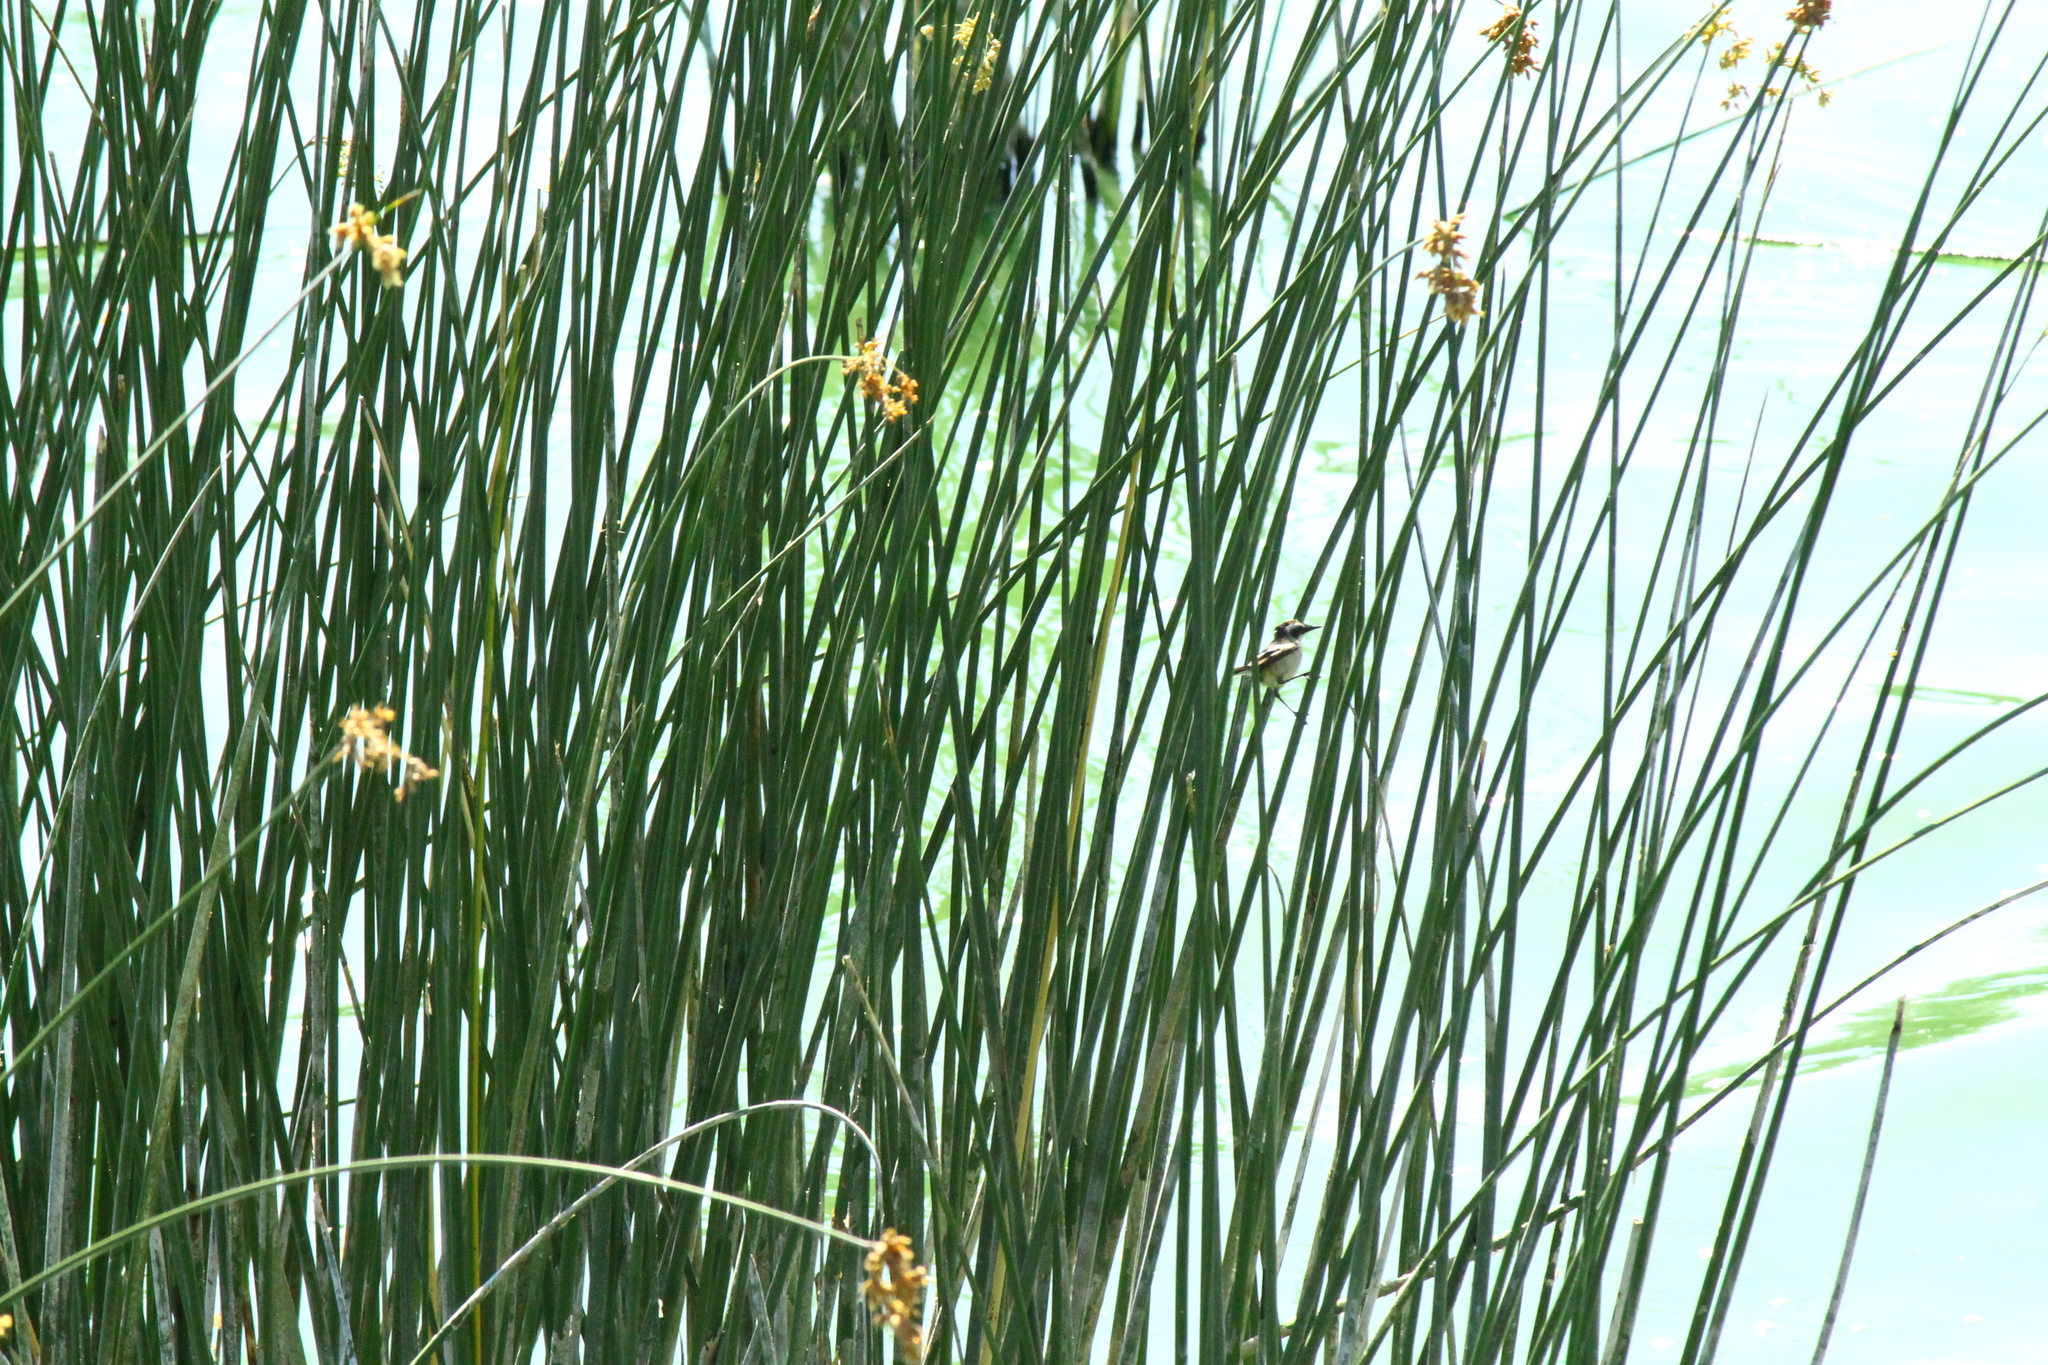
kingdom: Animalia
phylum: Chordata
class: Aves
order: Passeriformes
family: Tyrannidae
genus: Tachuris
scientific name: Tachuris rubrigastra
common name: Many-colored rush tyrant
